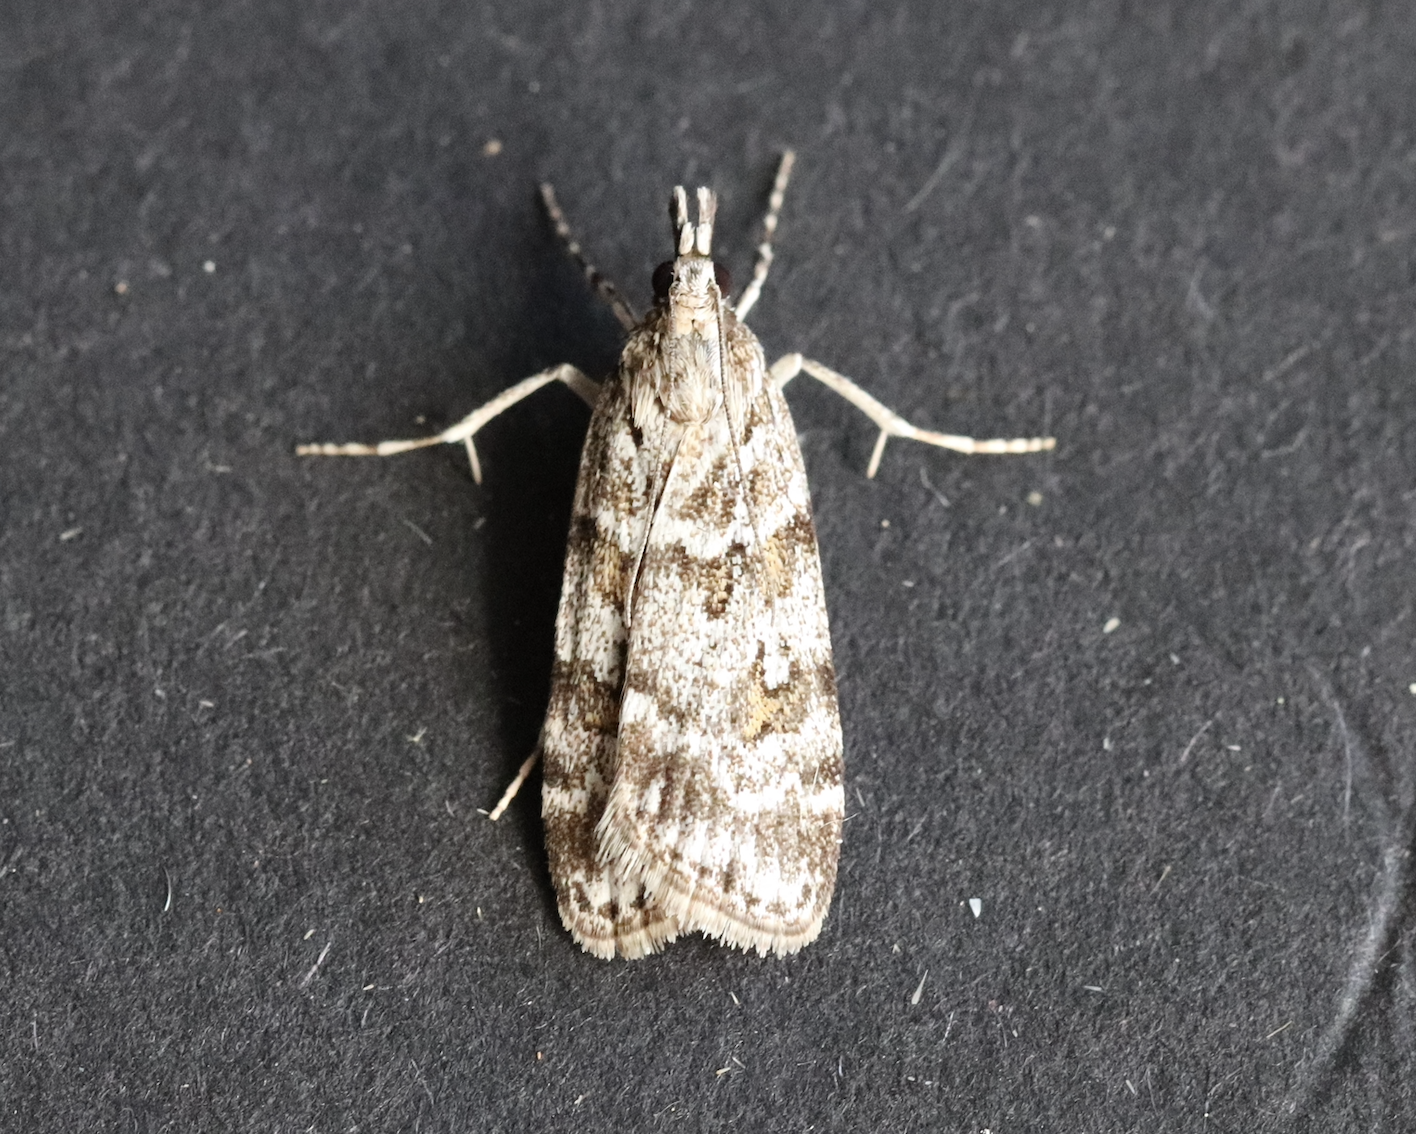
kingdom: Animalia
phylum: Arthropoda
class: Insecta
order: Lepidoptera
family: Crambidae
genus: Scoparia
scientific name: Scoparia pyralella
